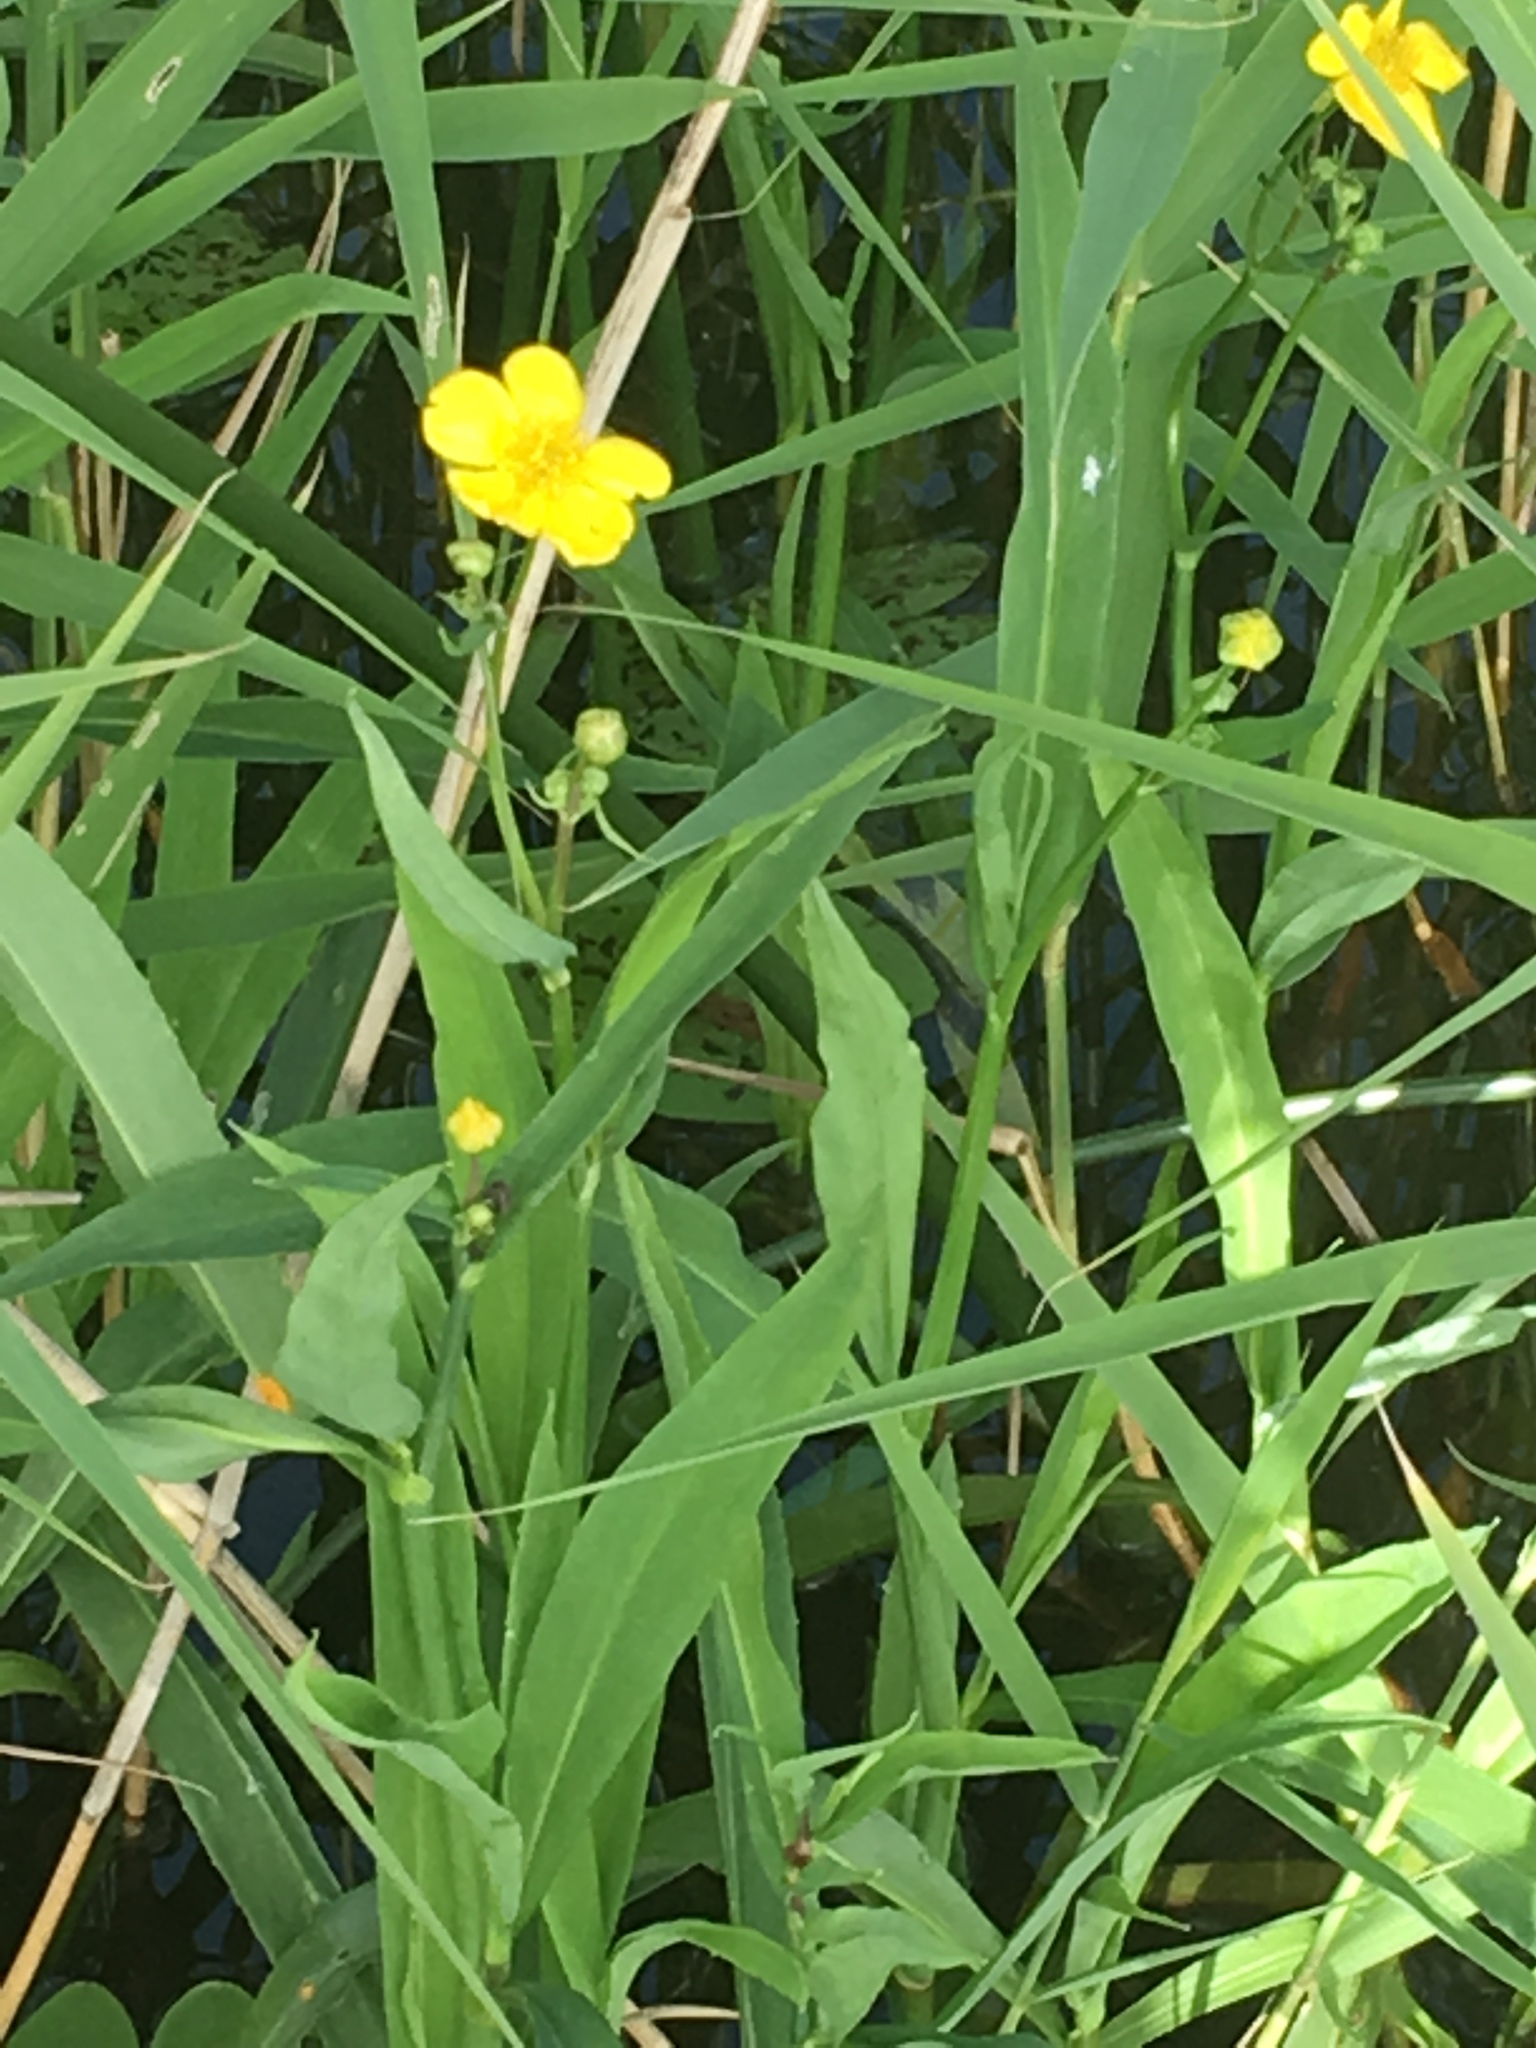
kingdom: Plantae
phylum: Tracheophyta
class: Magnoliopsida
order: Ranunculales
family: Ranunculaceae
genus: Ranunculus
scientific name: Ranunculus lingua
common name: Greater spearwort
